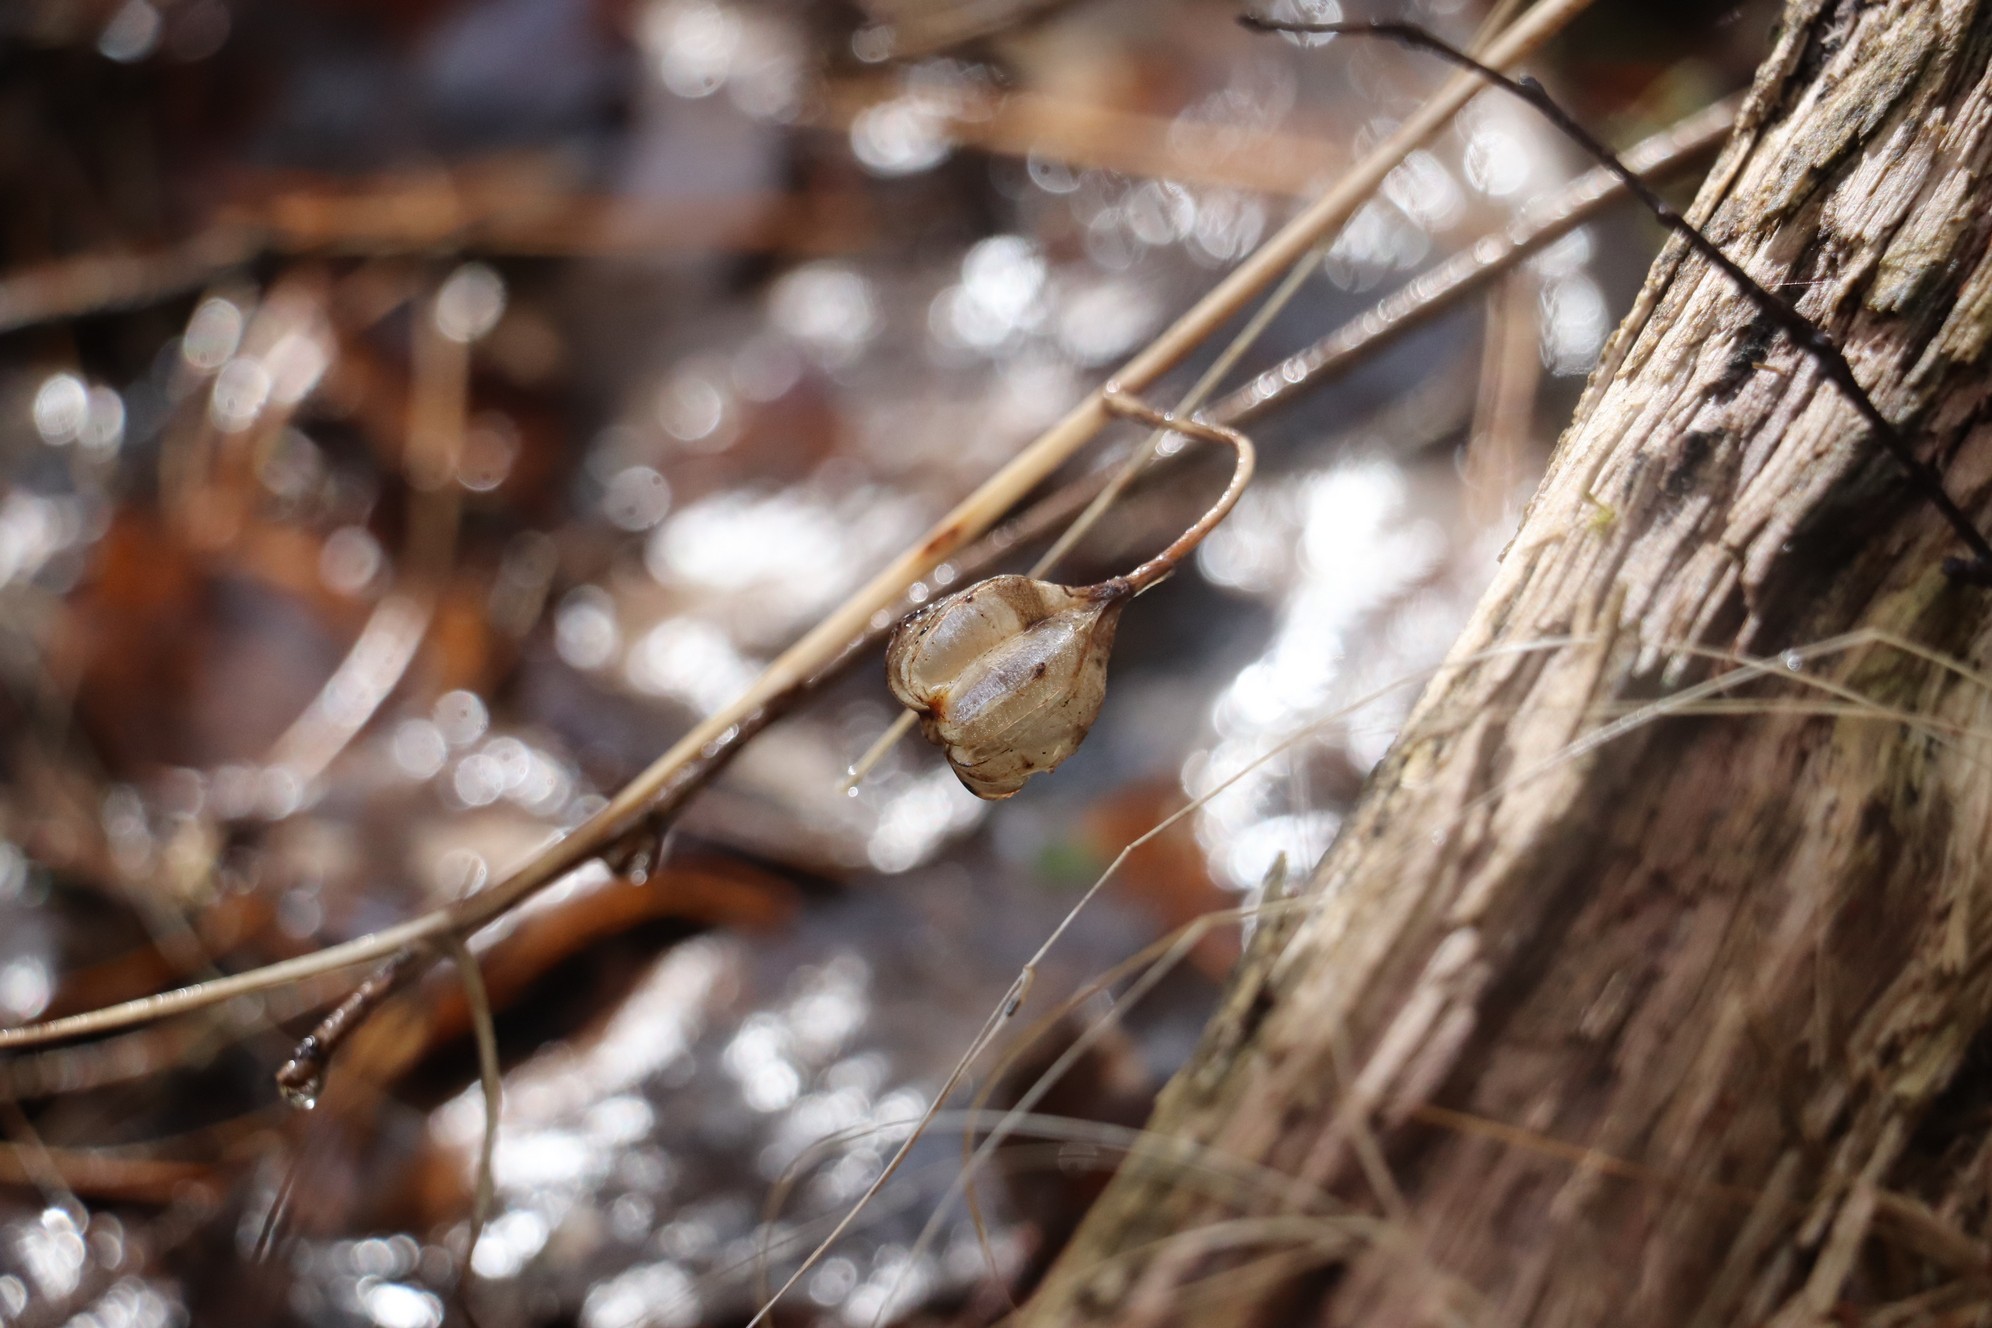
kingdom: Plantae
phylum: Tracheophyta
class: Liliopsida
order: Liliales
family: Liliaceae
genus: Lilium
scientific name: Lilium martagon
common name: Martagon lily
